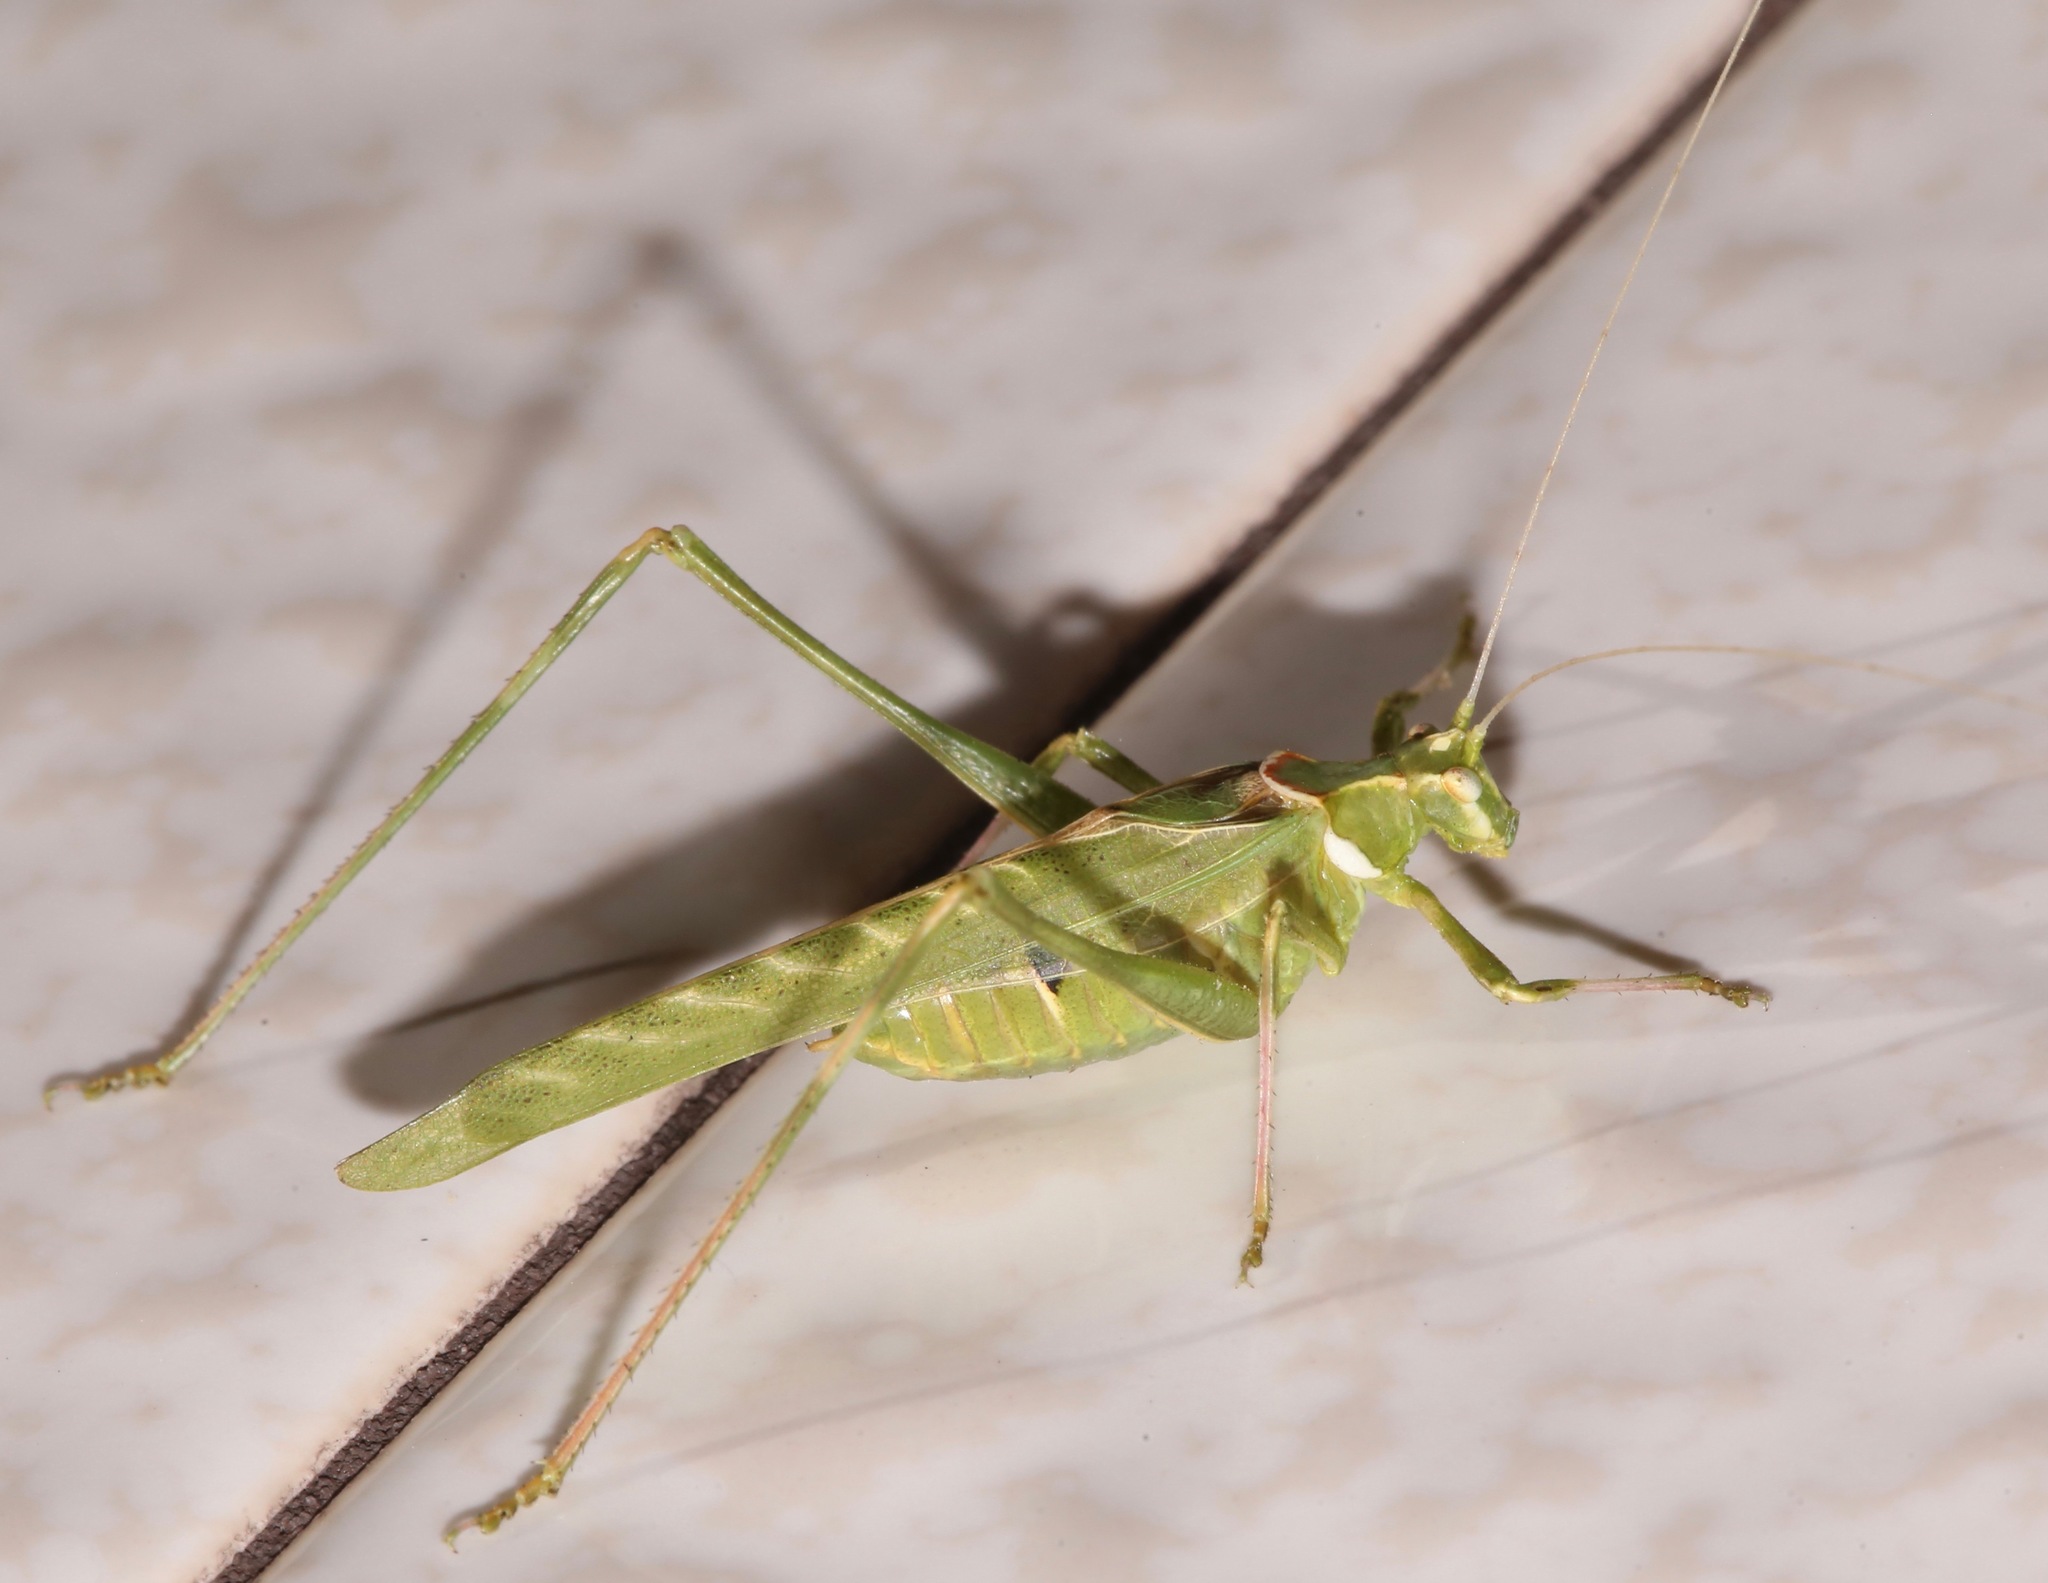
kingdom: Animalia
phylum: Arthropoda
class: Insecta
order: Orthoptera
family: Tettigoniidae
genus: Insara
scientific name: Insara elegans
